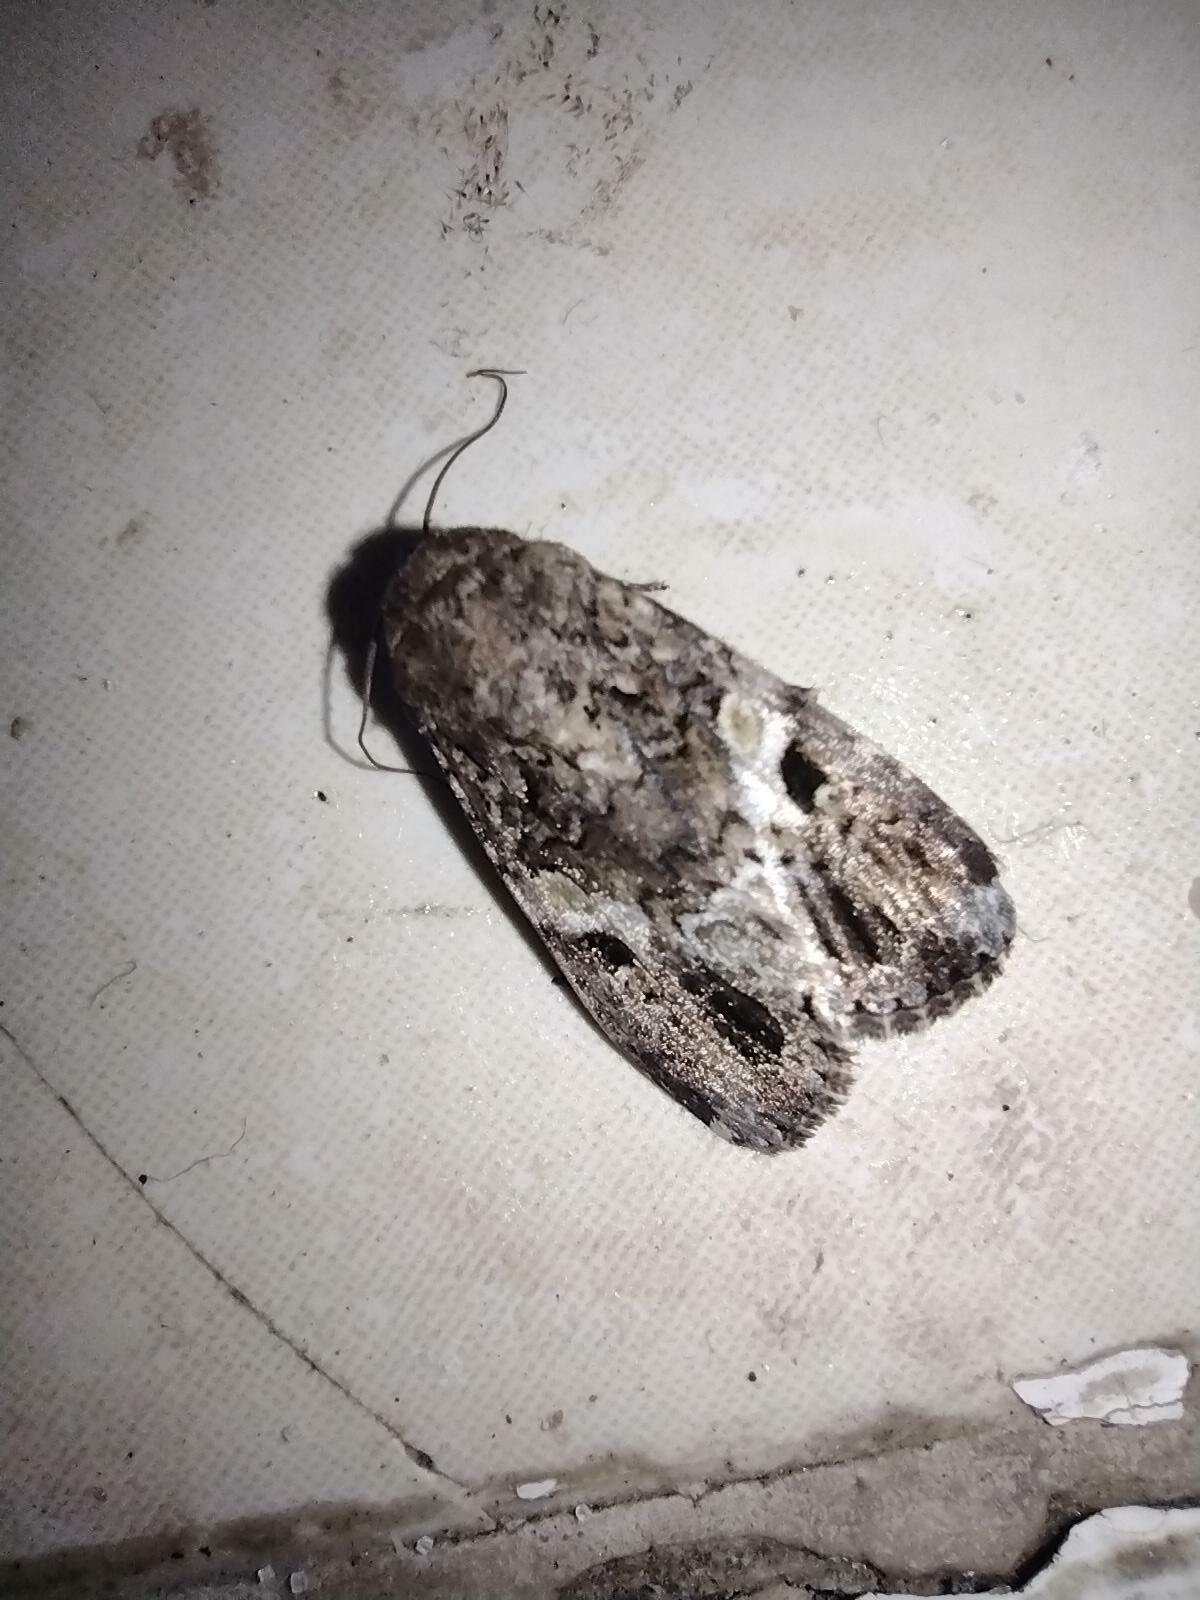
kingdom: Animalia
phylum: Arthropoda
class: Insecta
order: Lepidoptera
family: Noctuidae
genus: Spodoptera
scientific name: Spodoptera mauritia
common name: Lawn armyworm
